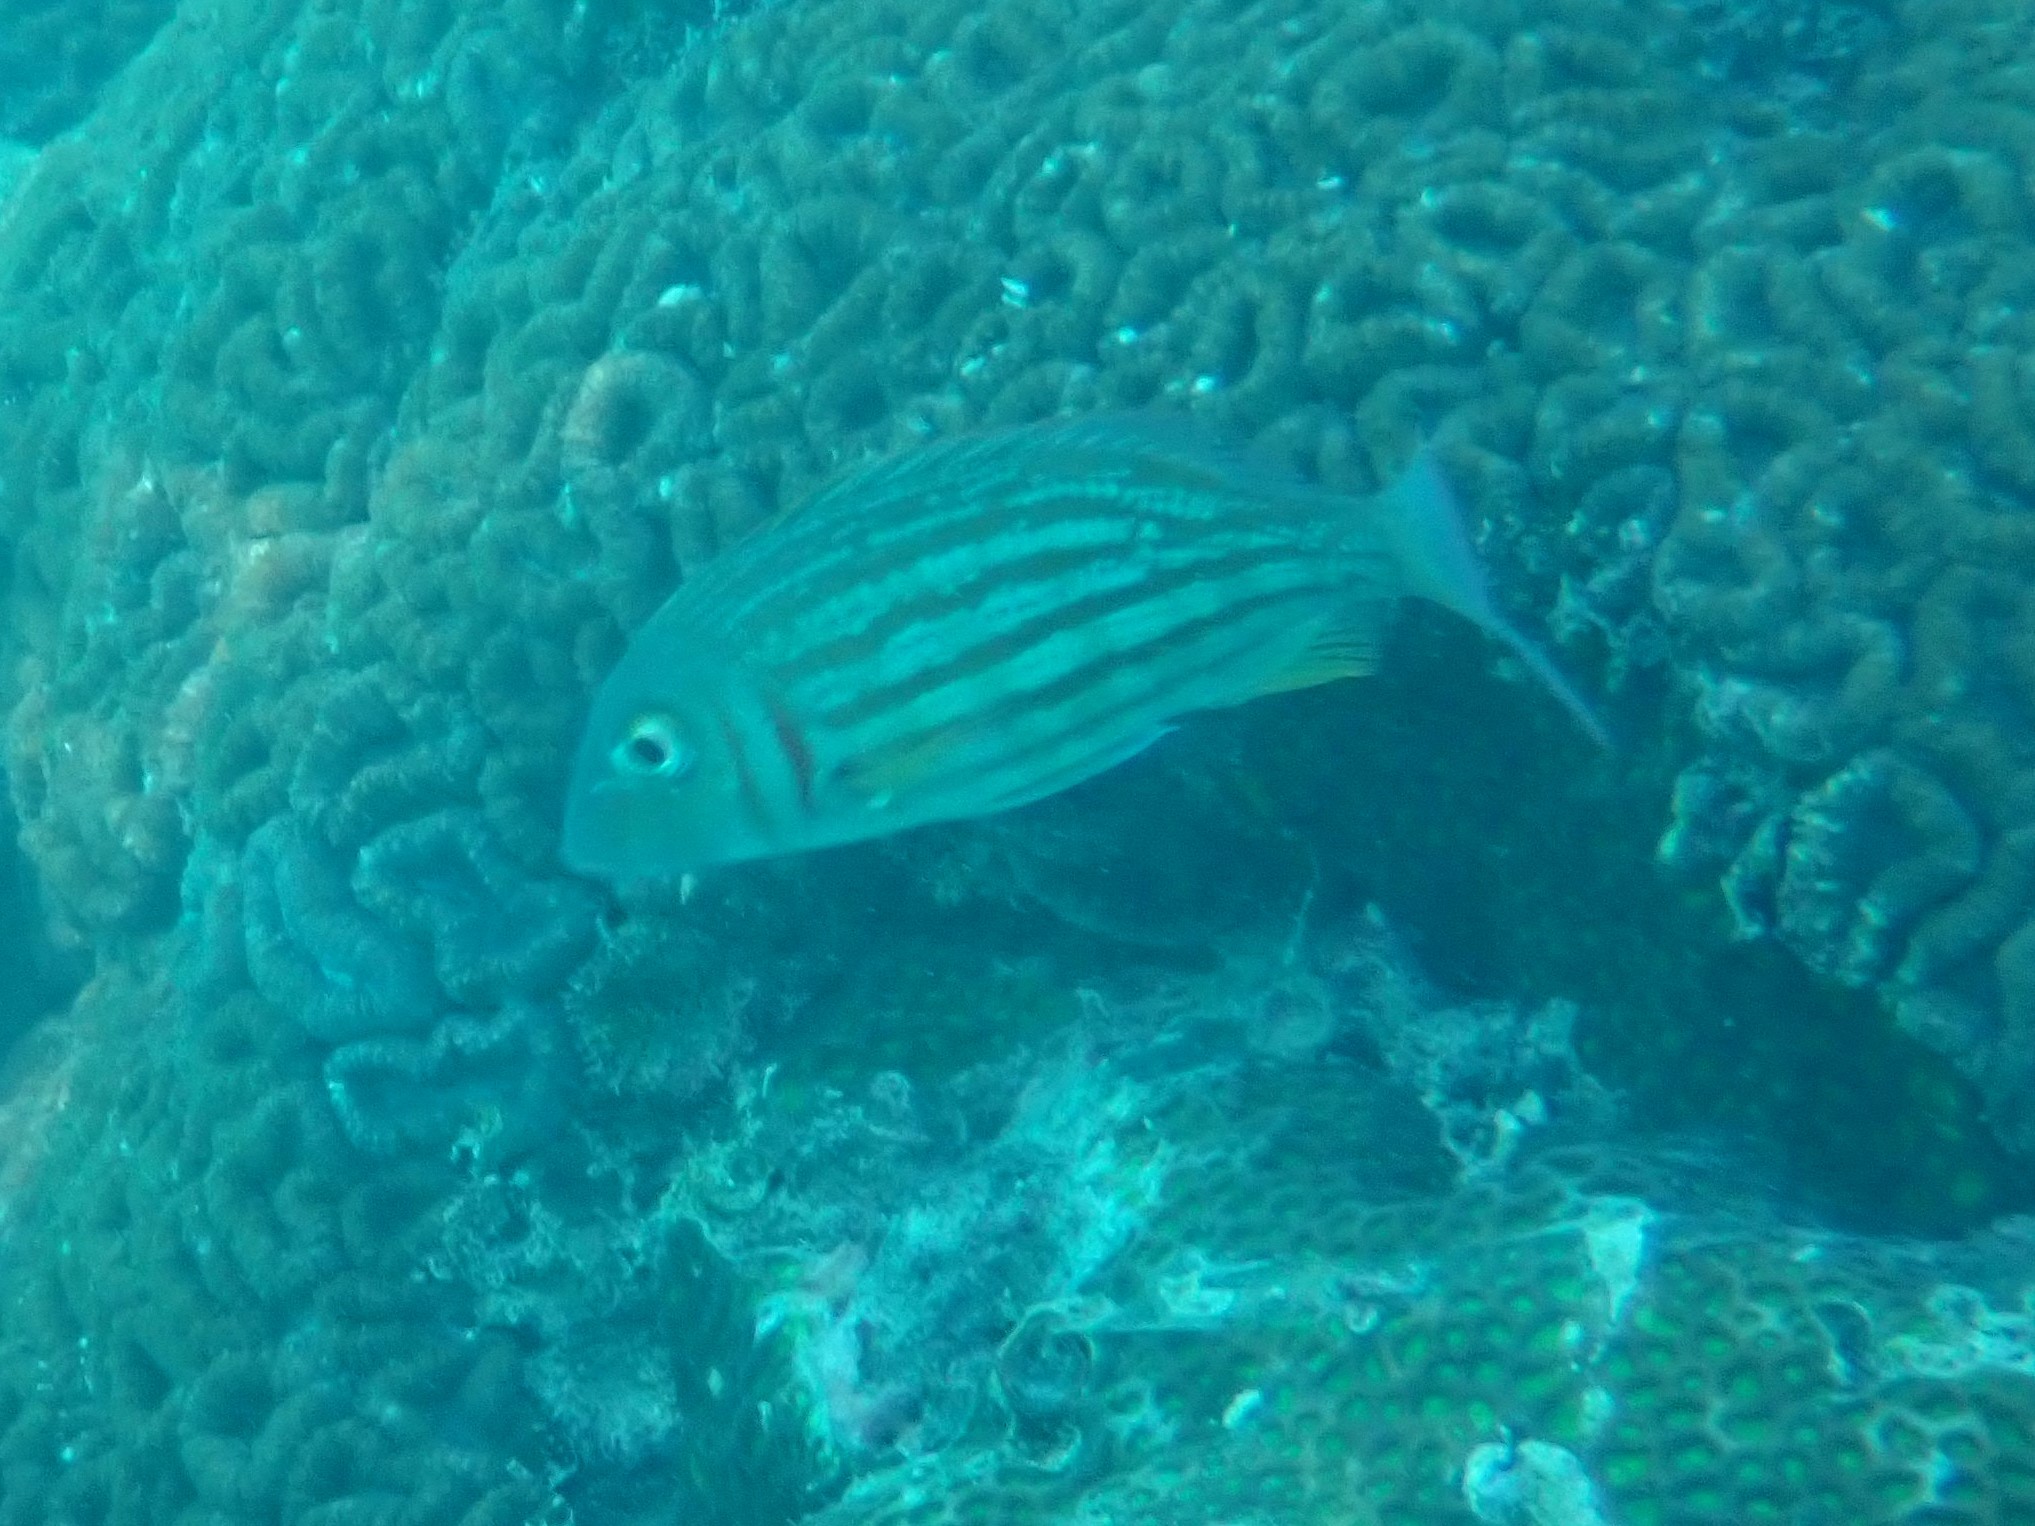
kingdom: Animalia
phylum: Chordata
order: Perciformes
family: Lethrinidae
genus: Lethrinus
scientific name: Lethrinus ornatus
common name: Ornate emperor
